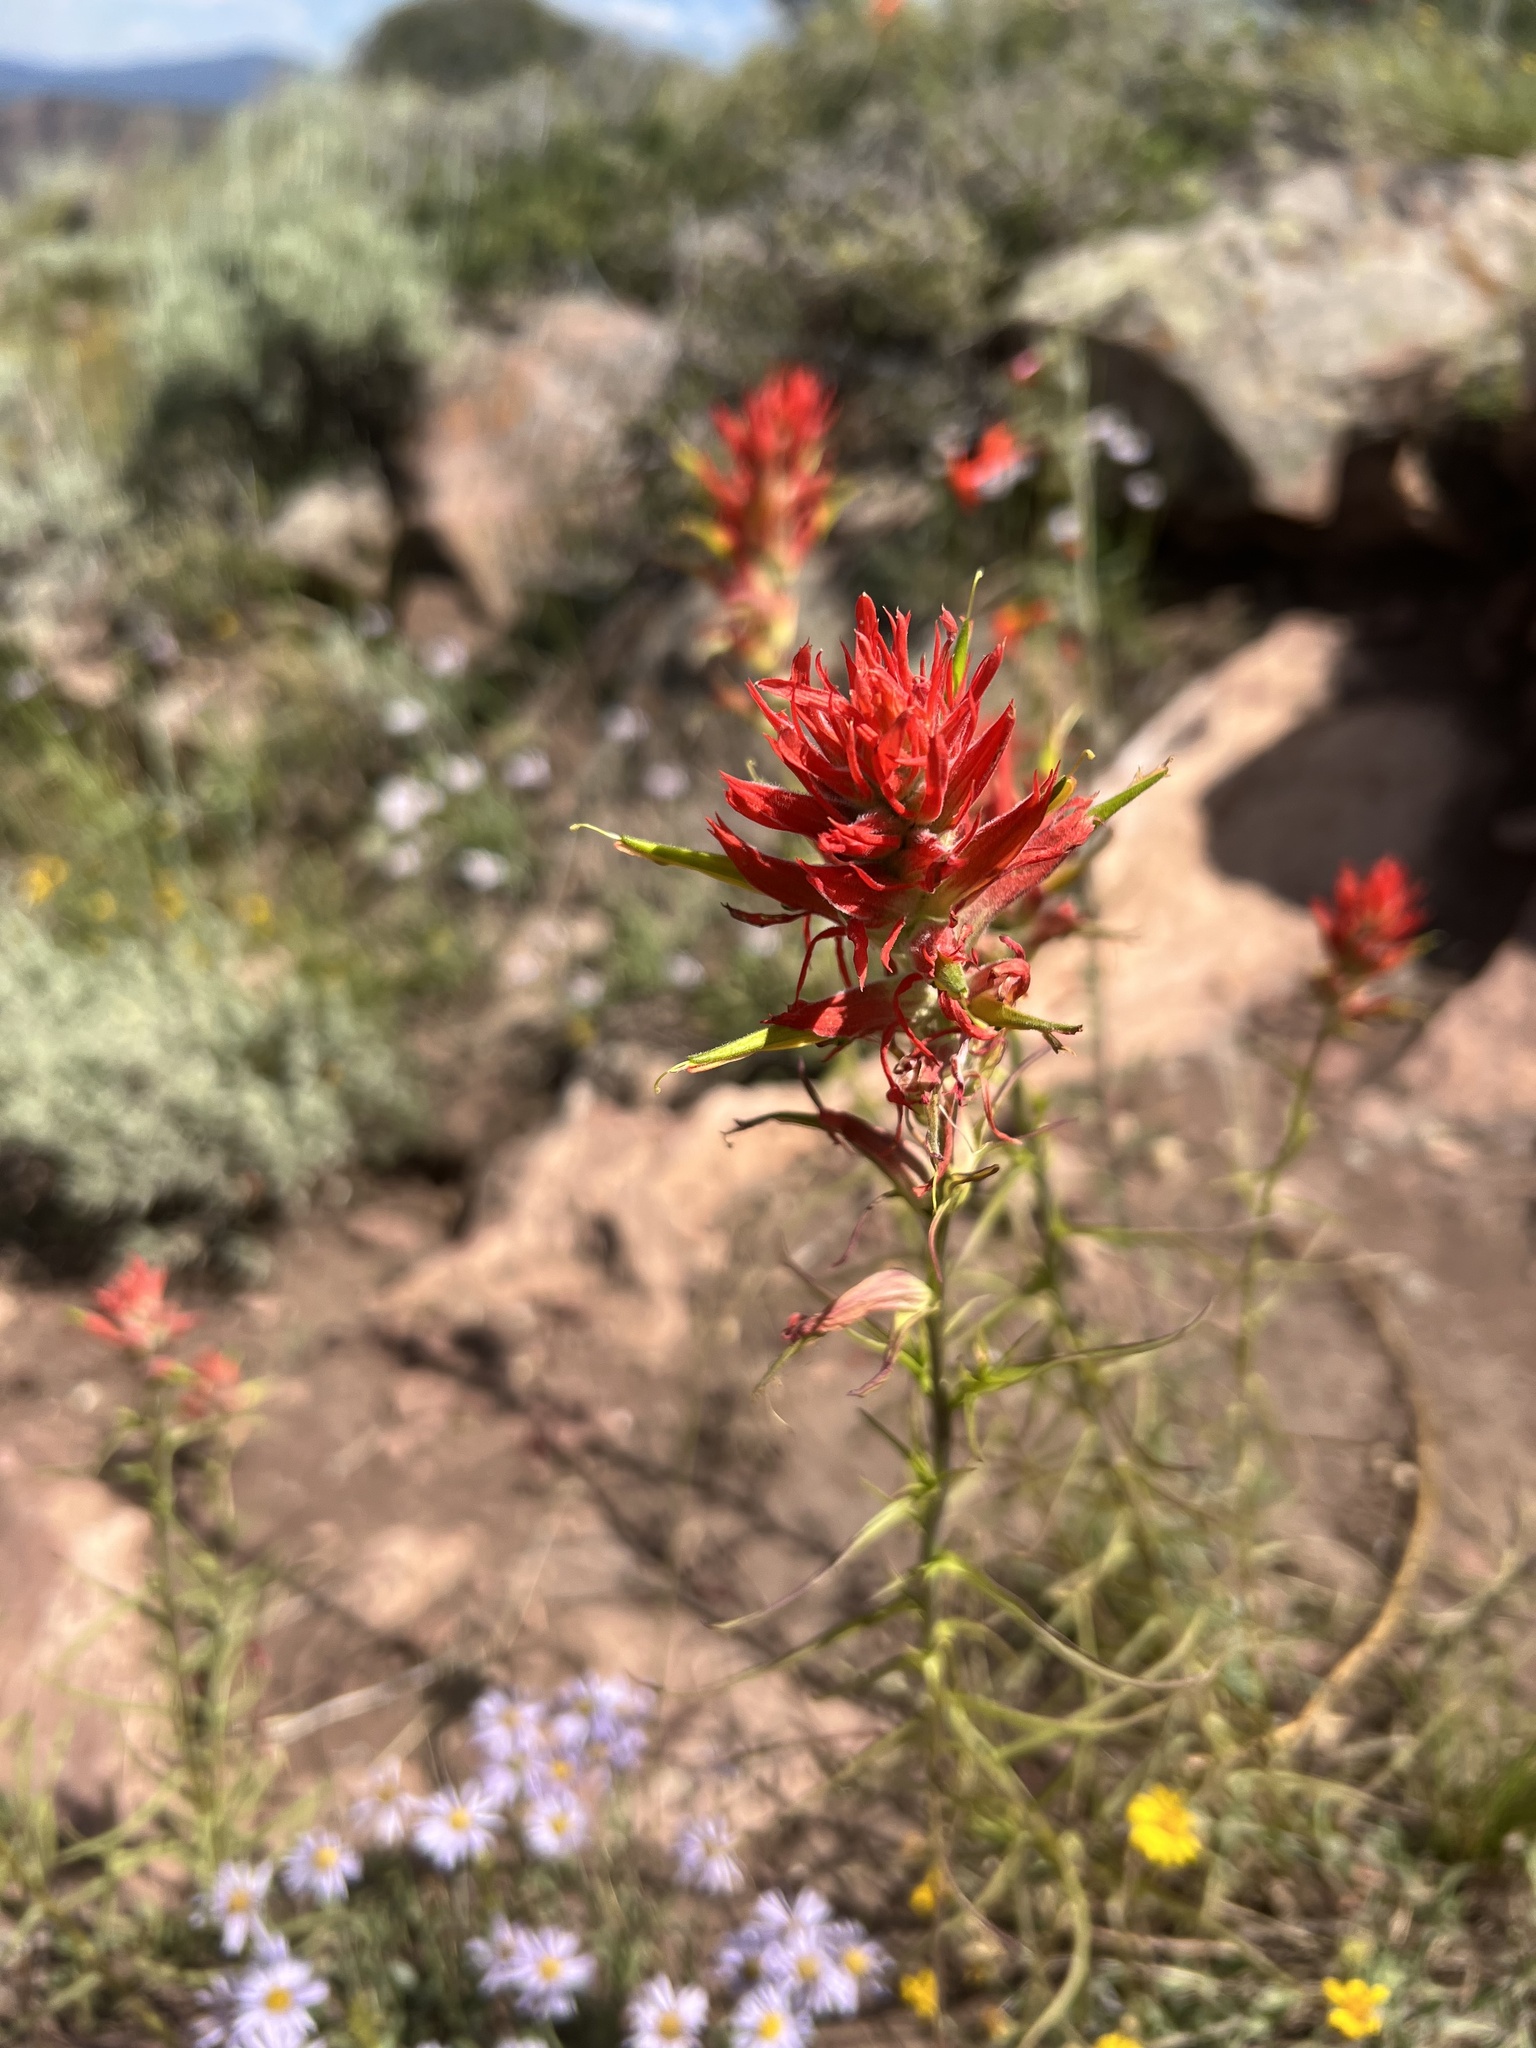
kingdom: Plantae
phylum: Tracheophyta
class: Magnoliopsida
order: Lamiales
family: Orobanchaceae
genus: Castilleja
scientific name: Castilleja linariifolia
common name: Wyoming paintbrush
